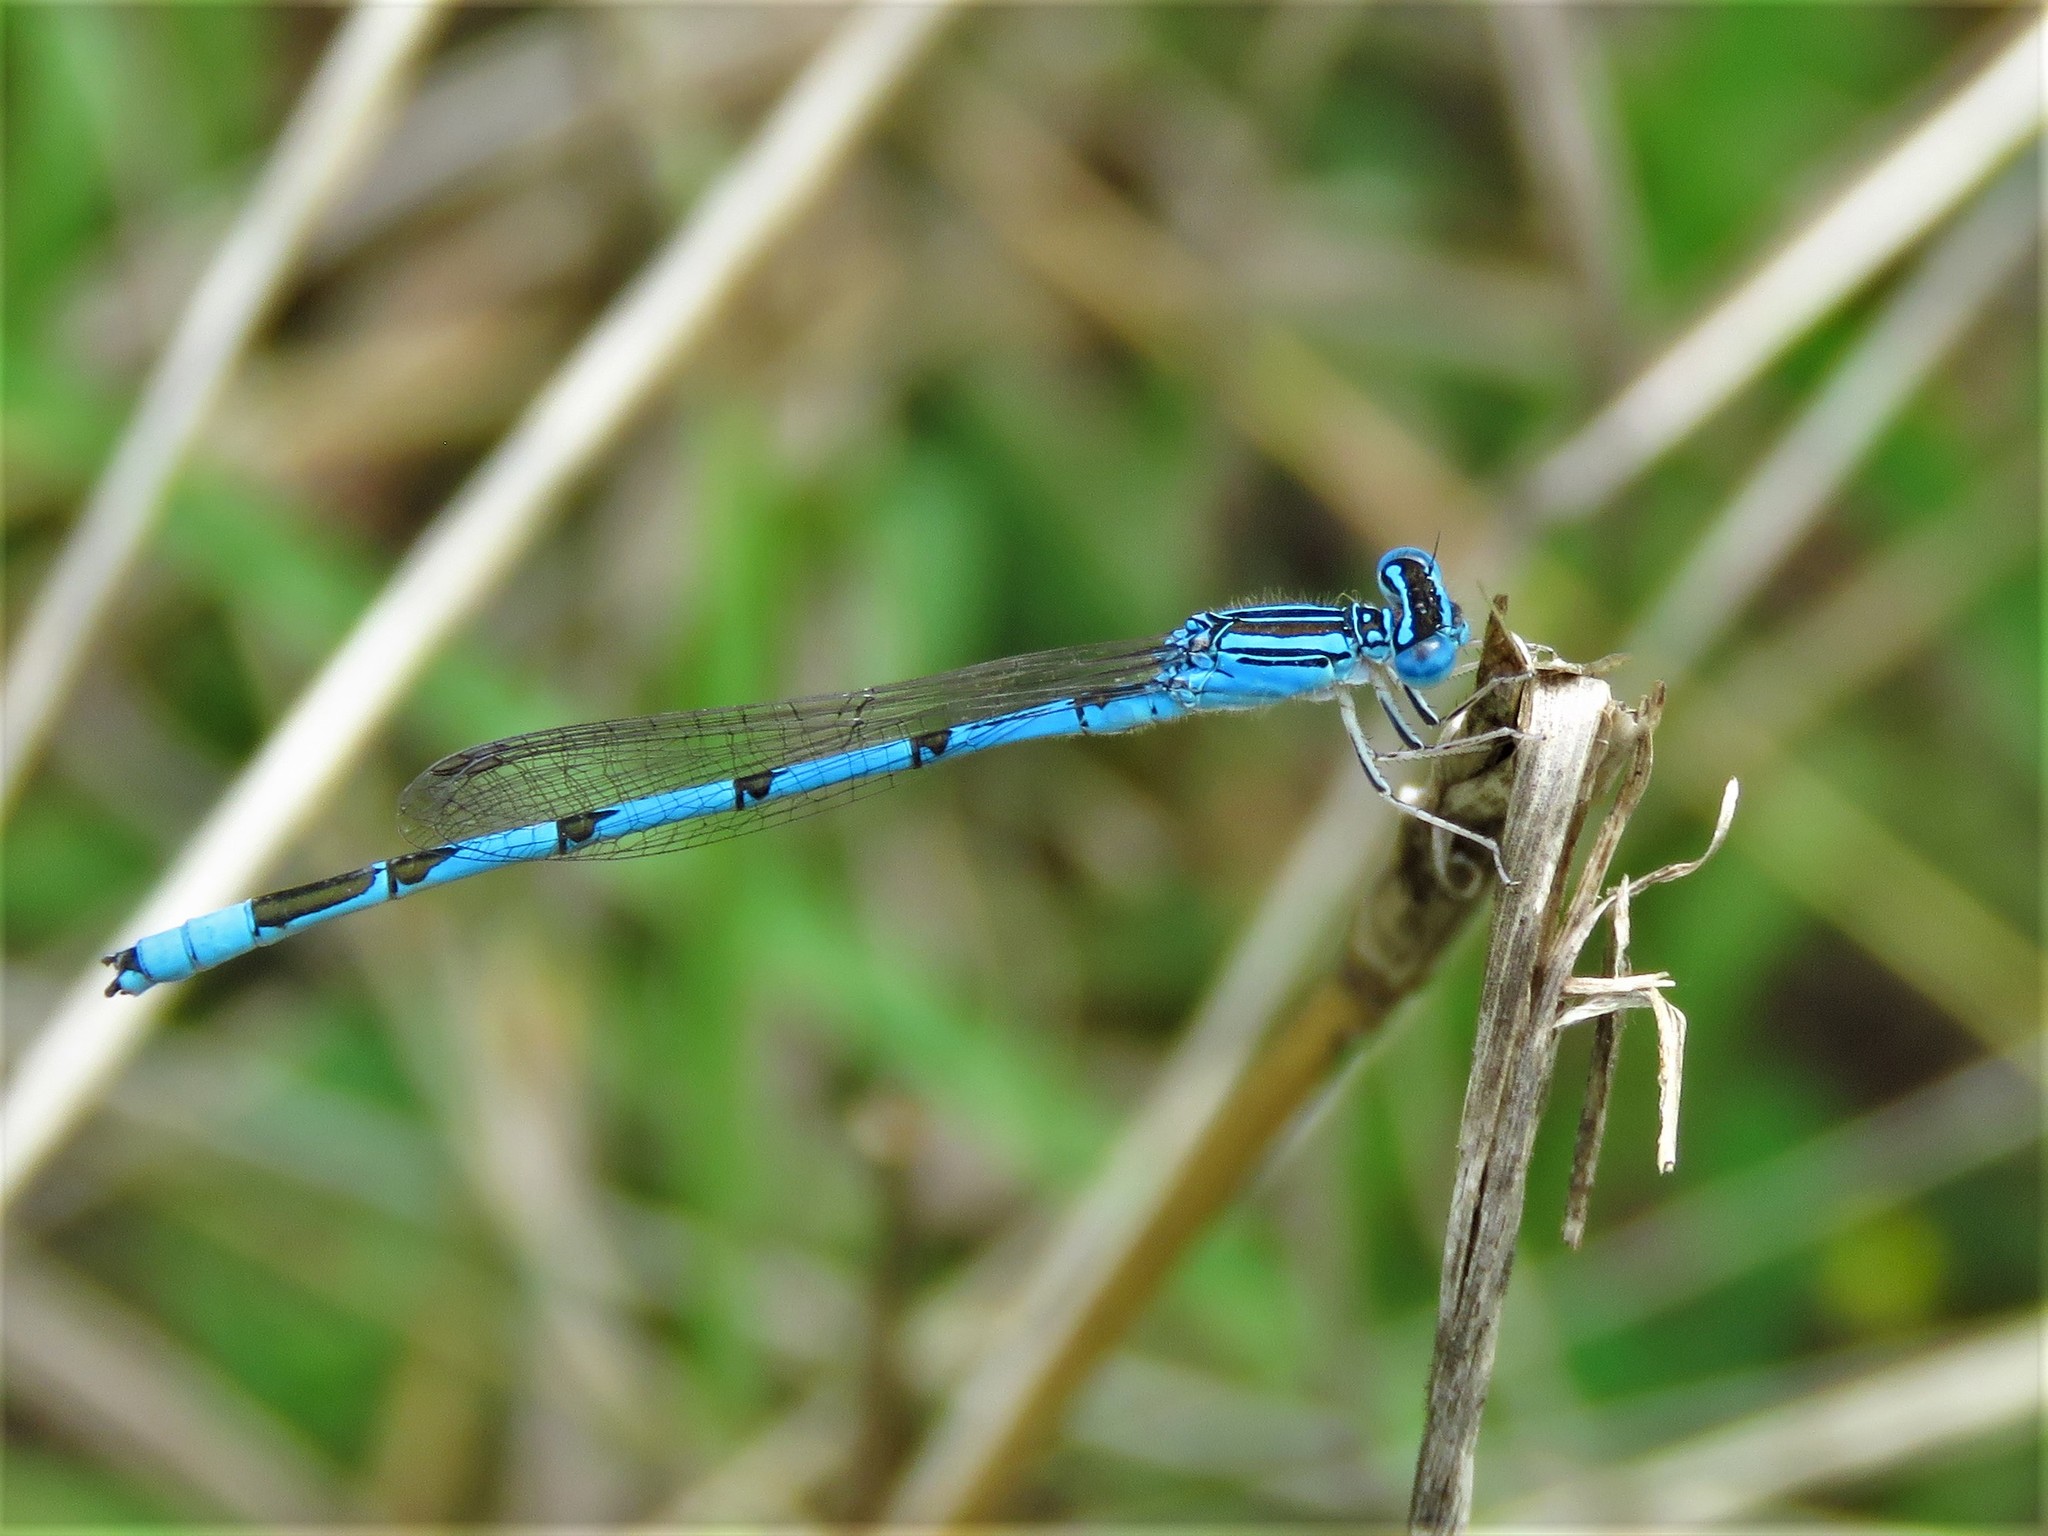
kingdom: Animalia
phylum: Arthropoda
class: Insecta
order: Odonata
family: Coenagrionidae
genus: Enallagma
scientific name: Enallagma basidens
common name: Double-striped bluet
